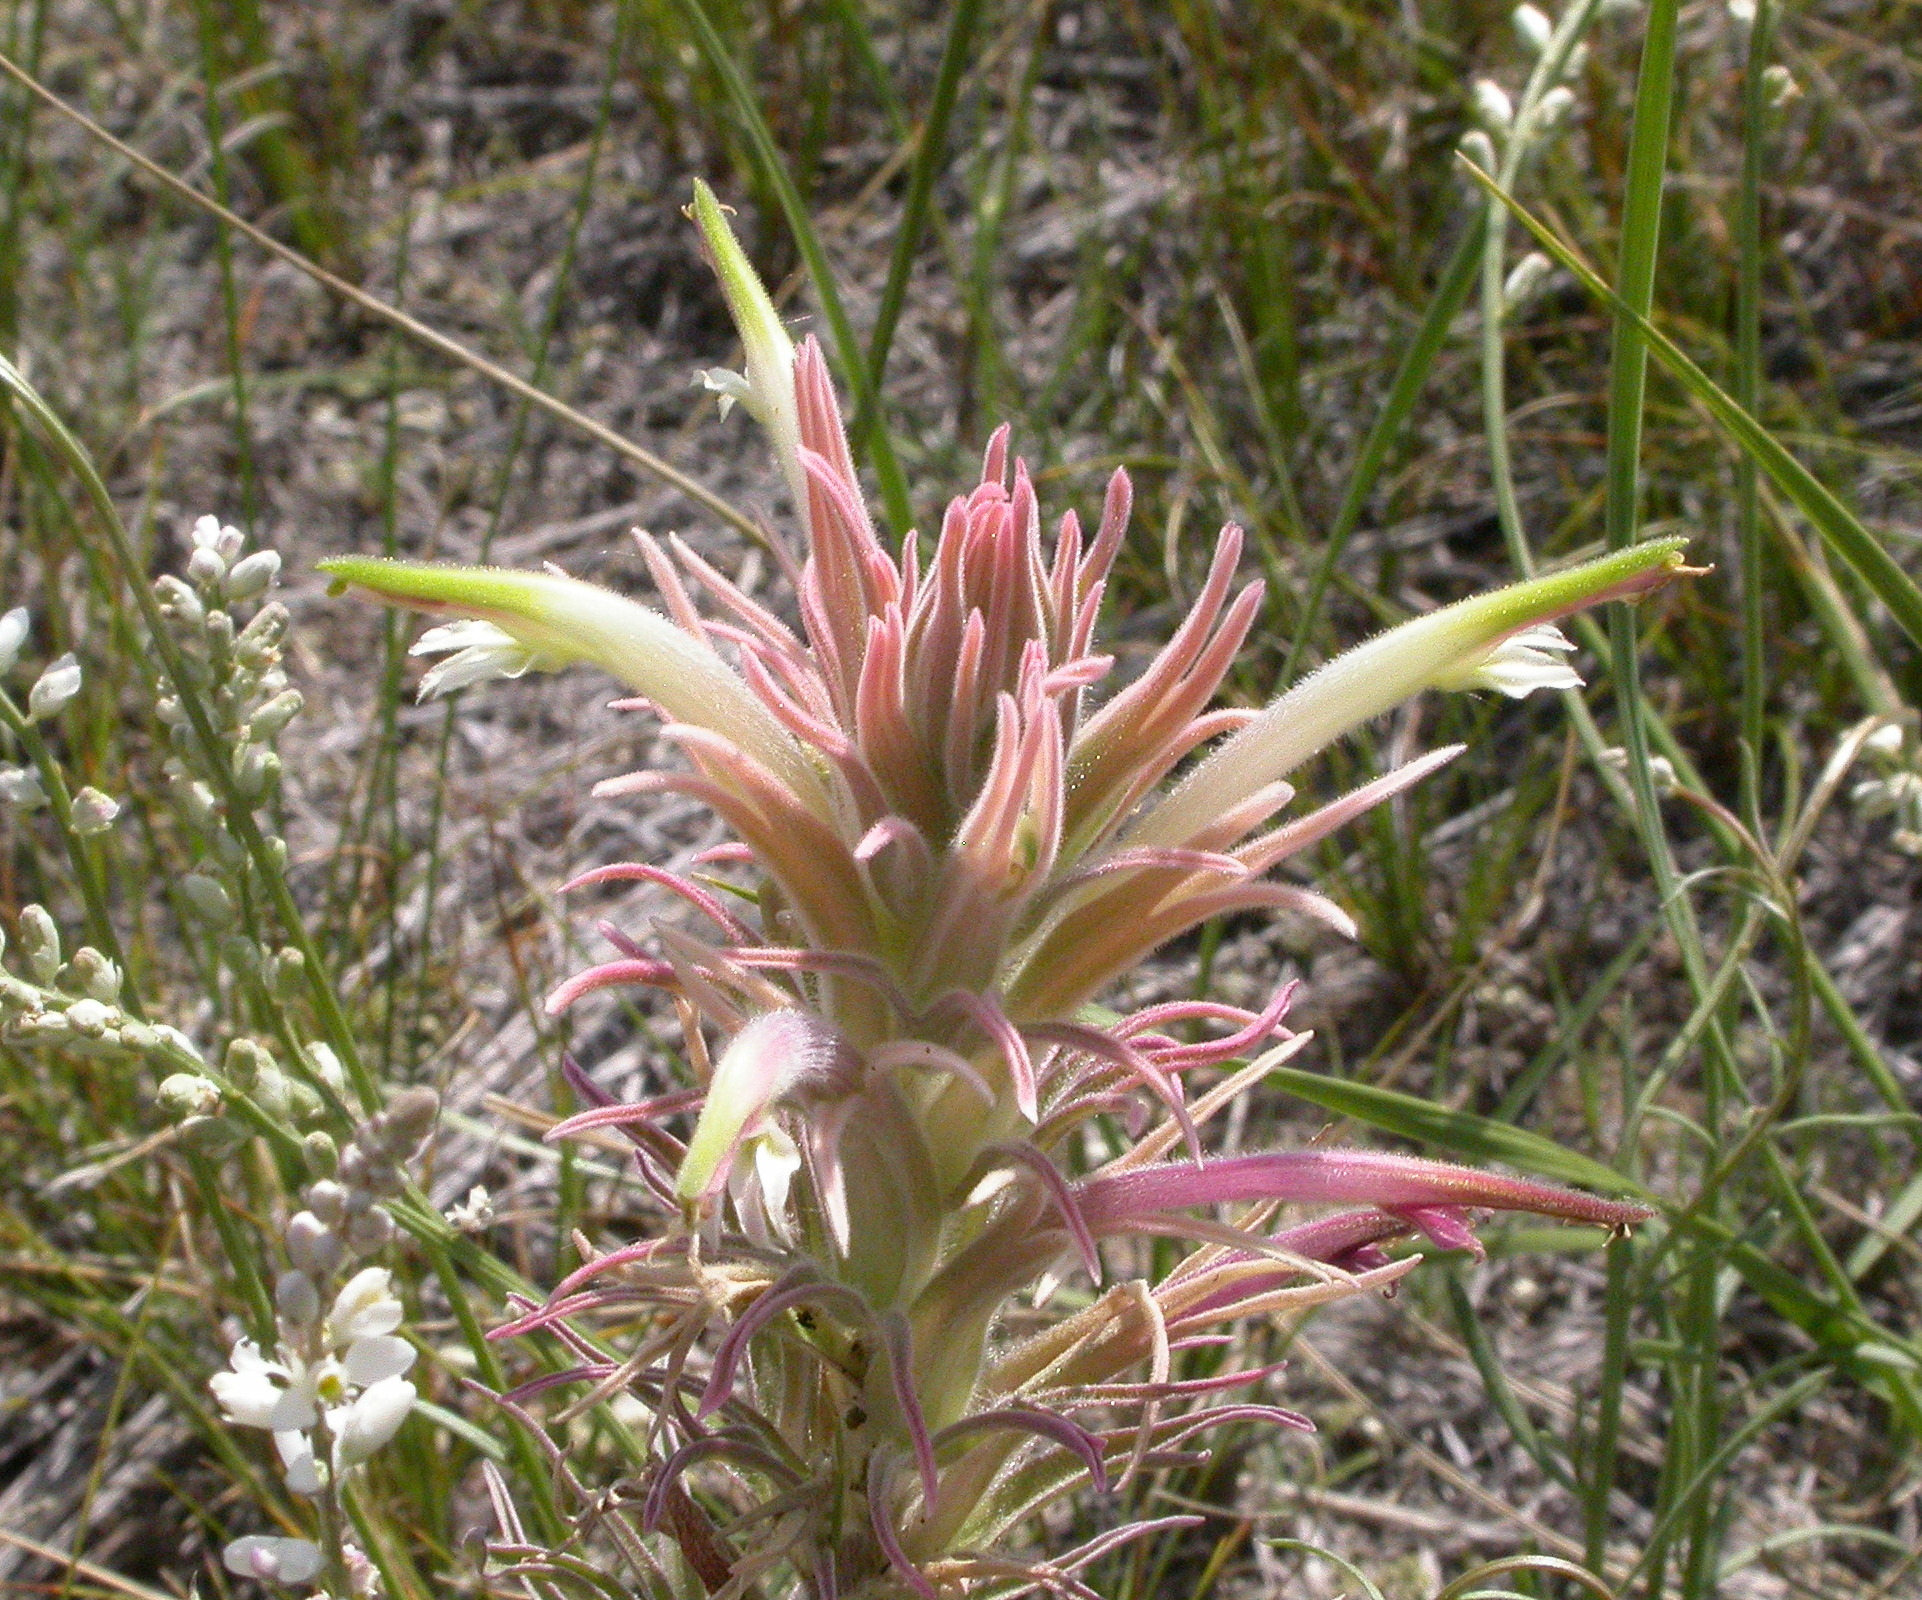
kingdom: Plantae
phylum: Tracheophyta
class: Magnoliopsida
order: Lamiales
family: Orobanchaceae
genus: Castilleja
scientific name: Castilleja sessiliflora
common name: Downy paintbrush
